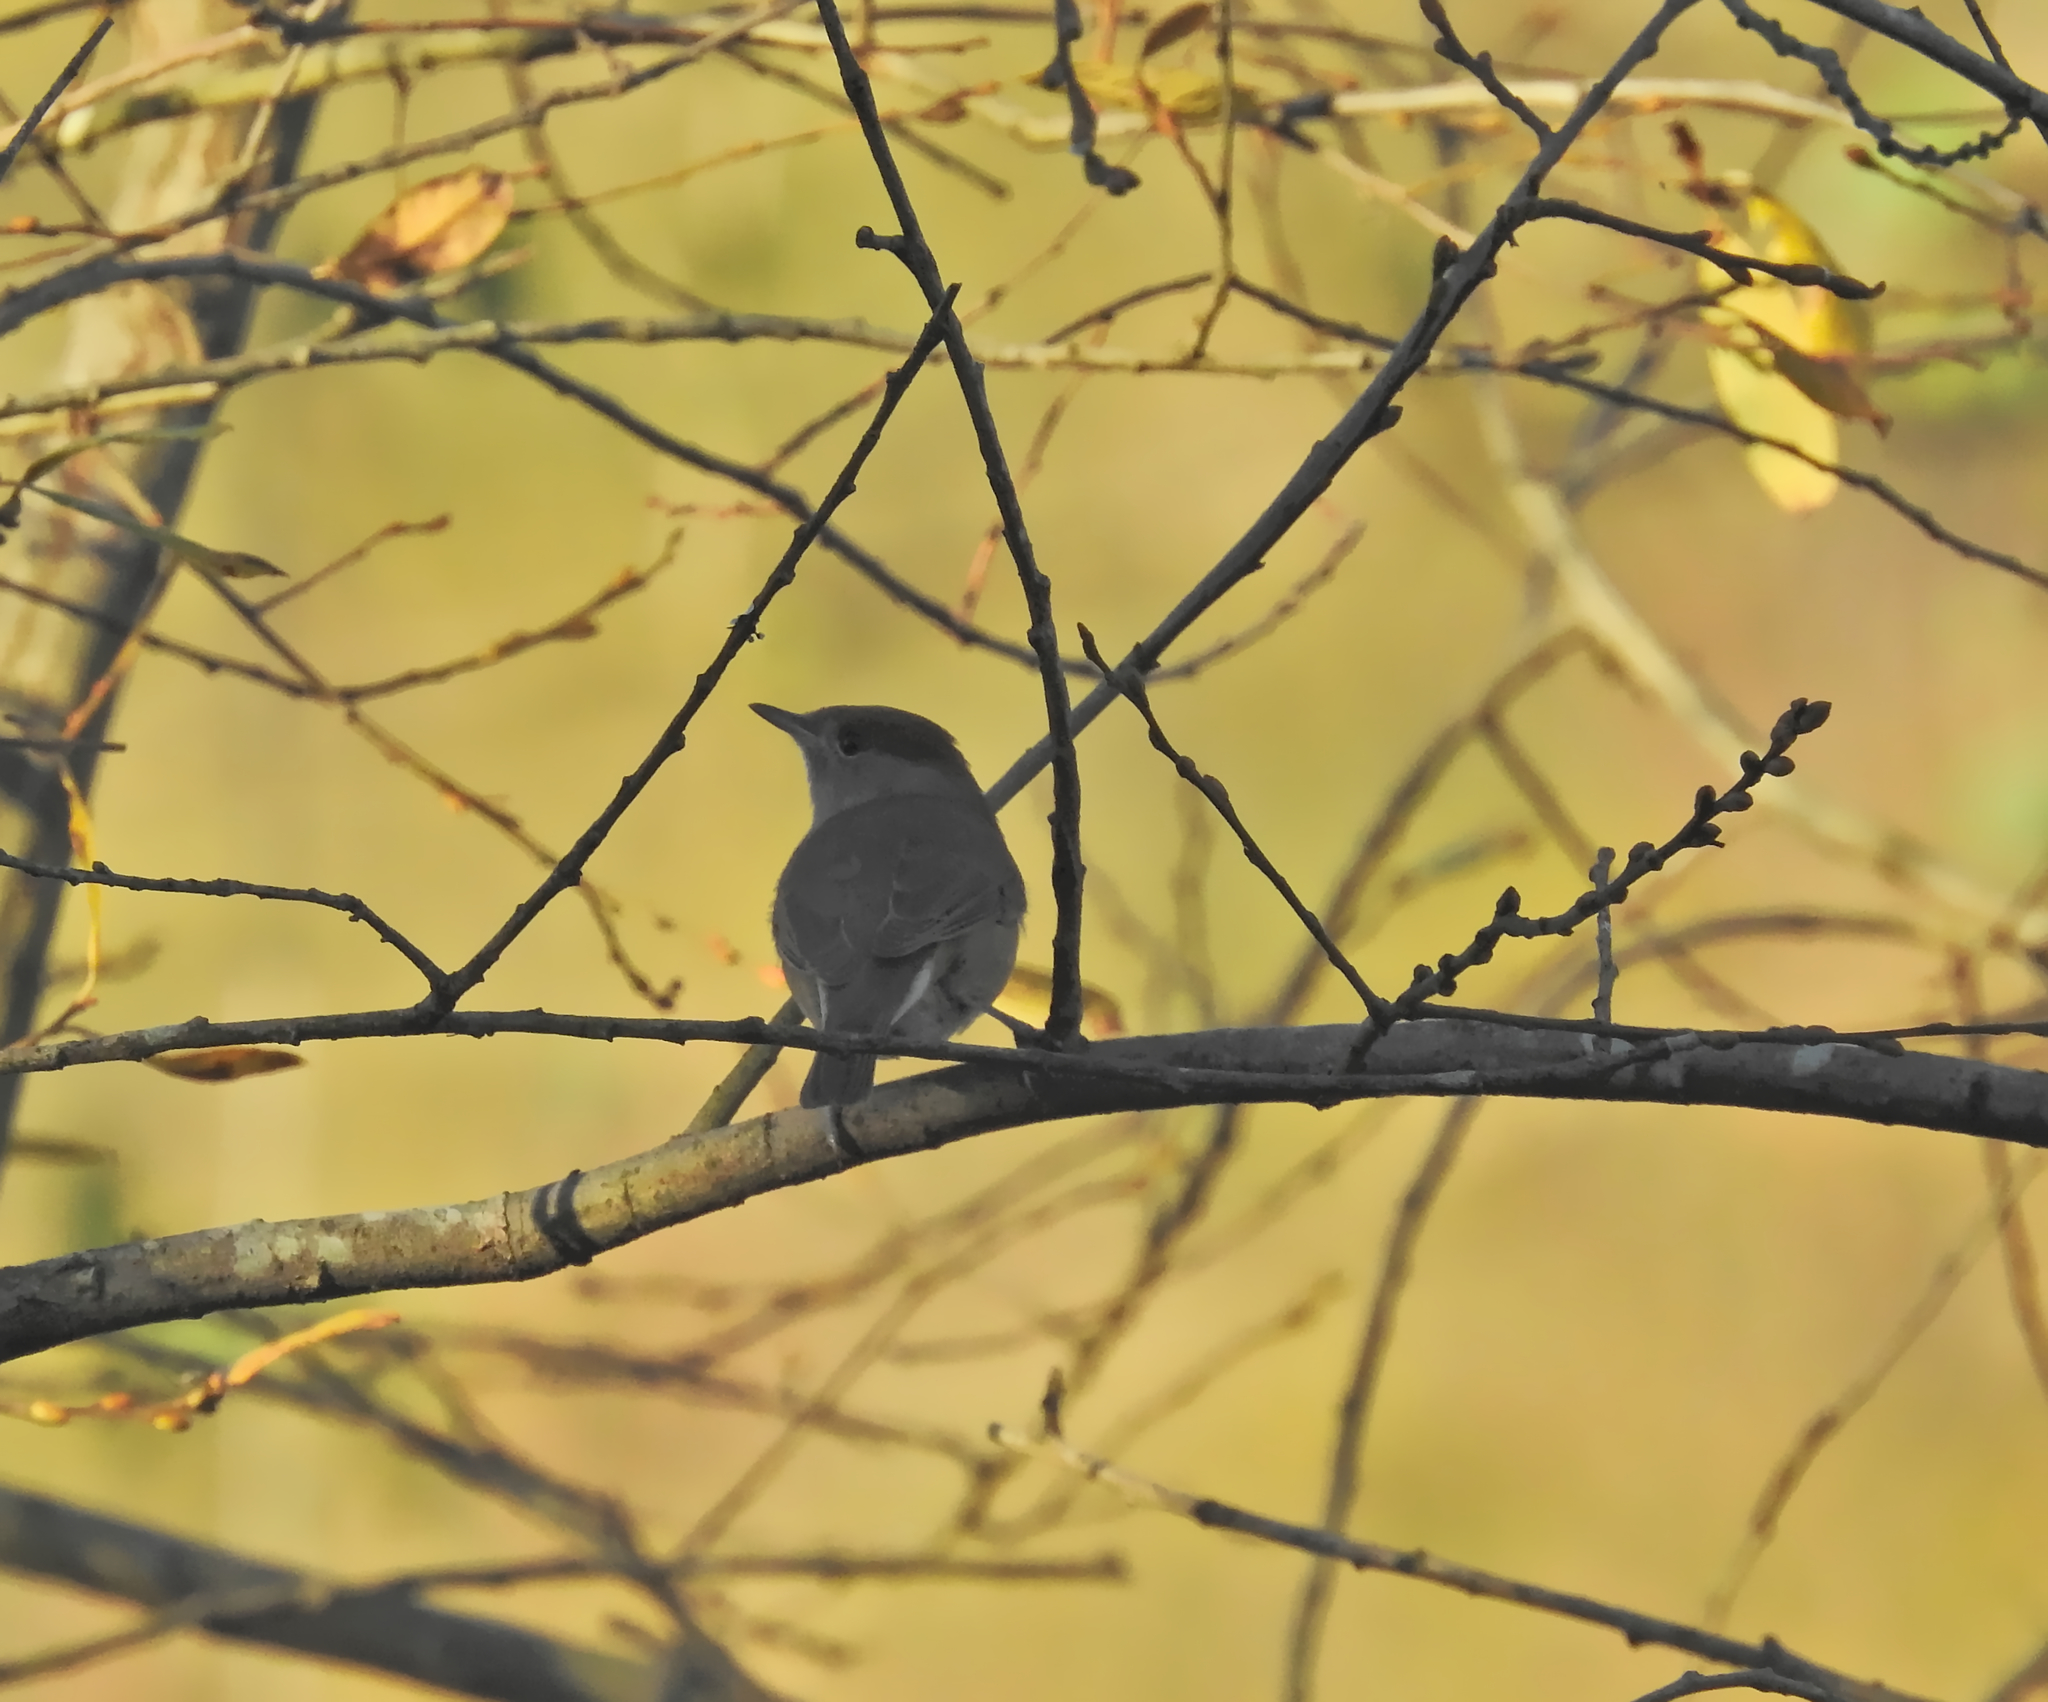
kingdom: Animalia
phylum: Chordata
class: Aves
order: Passeriformes
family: Sylviidae
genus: Sylvia
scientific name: Sylvia atricapilla
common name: Eurasian blackcap
